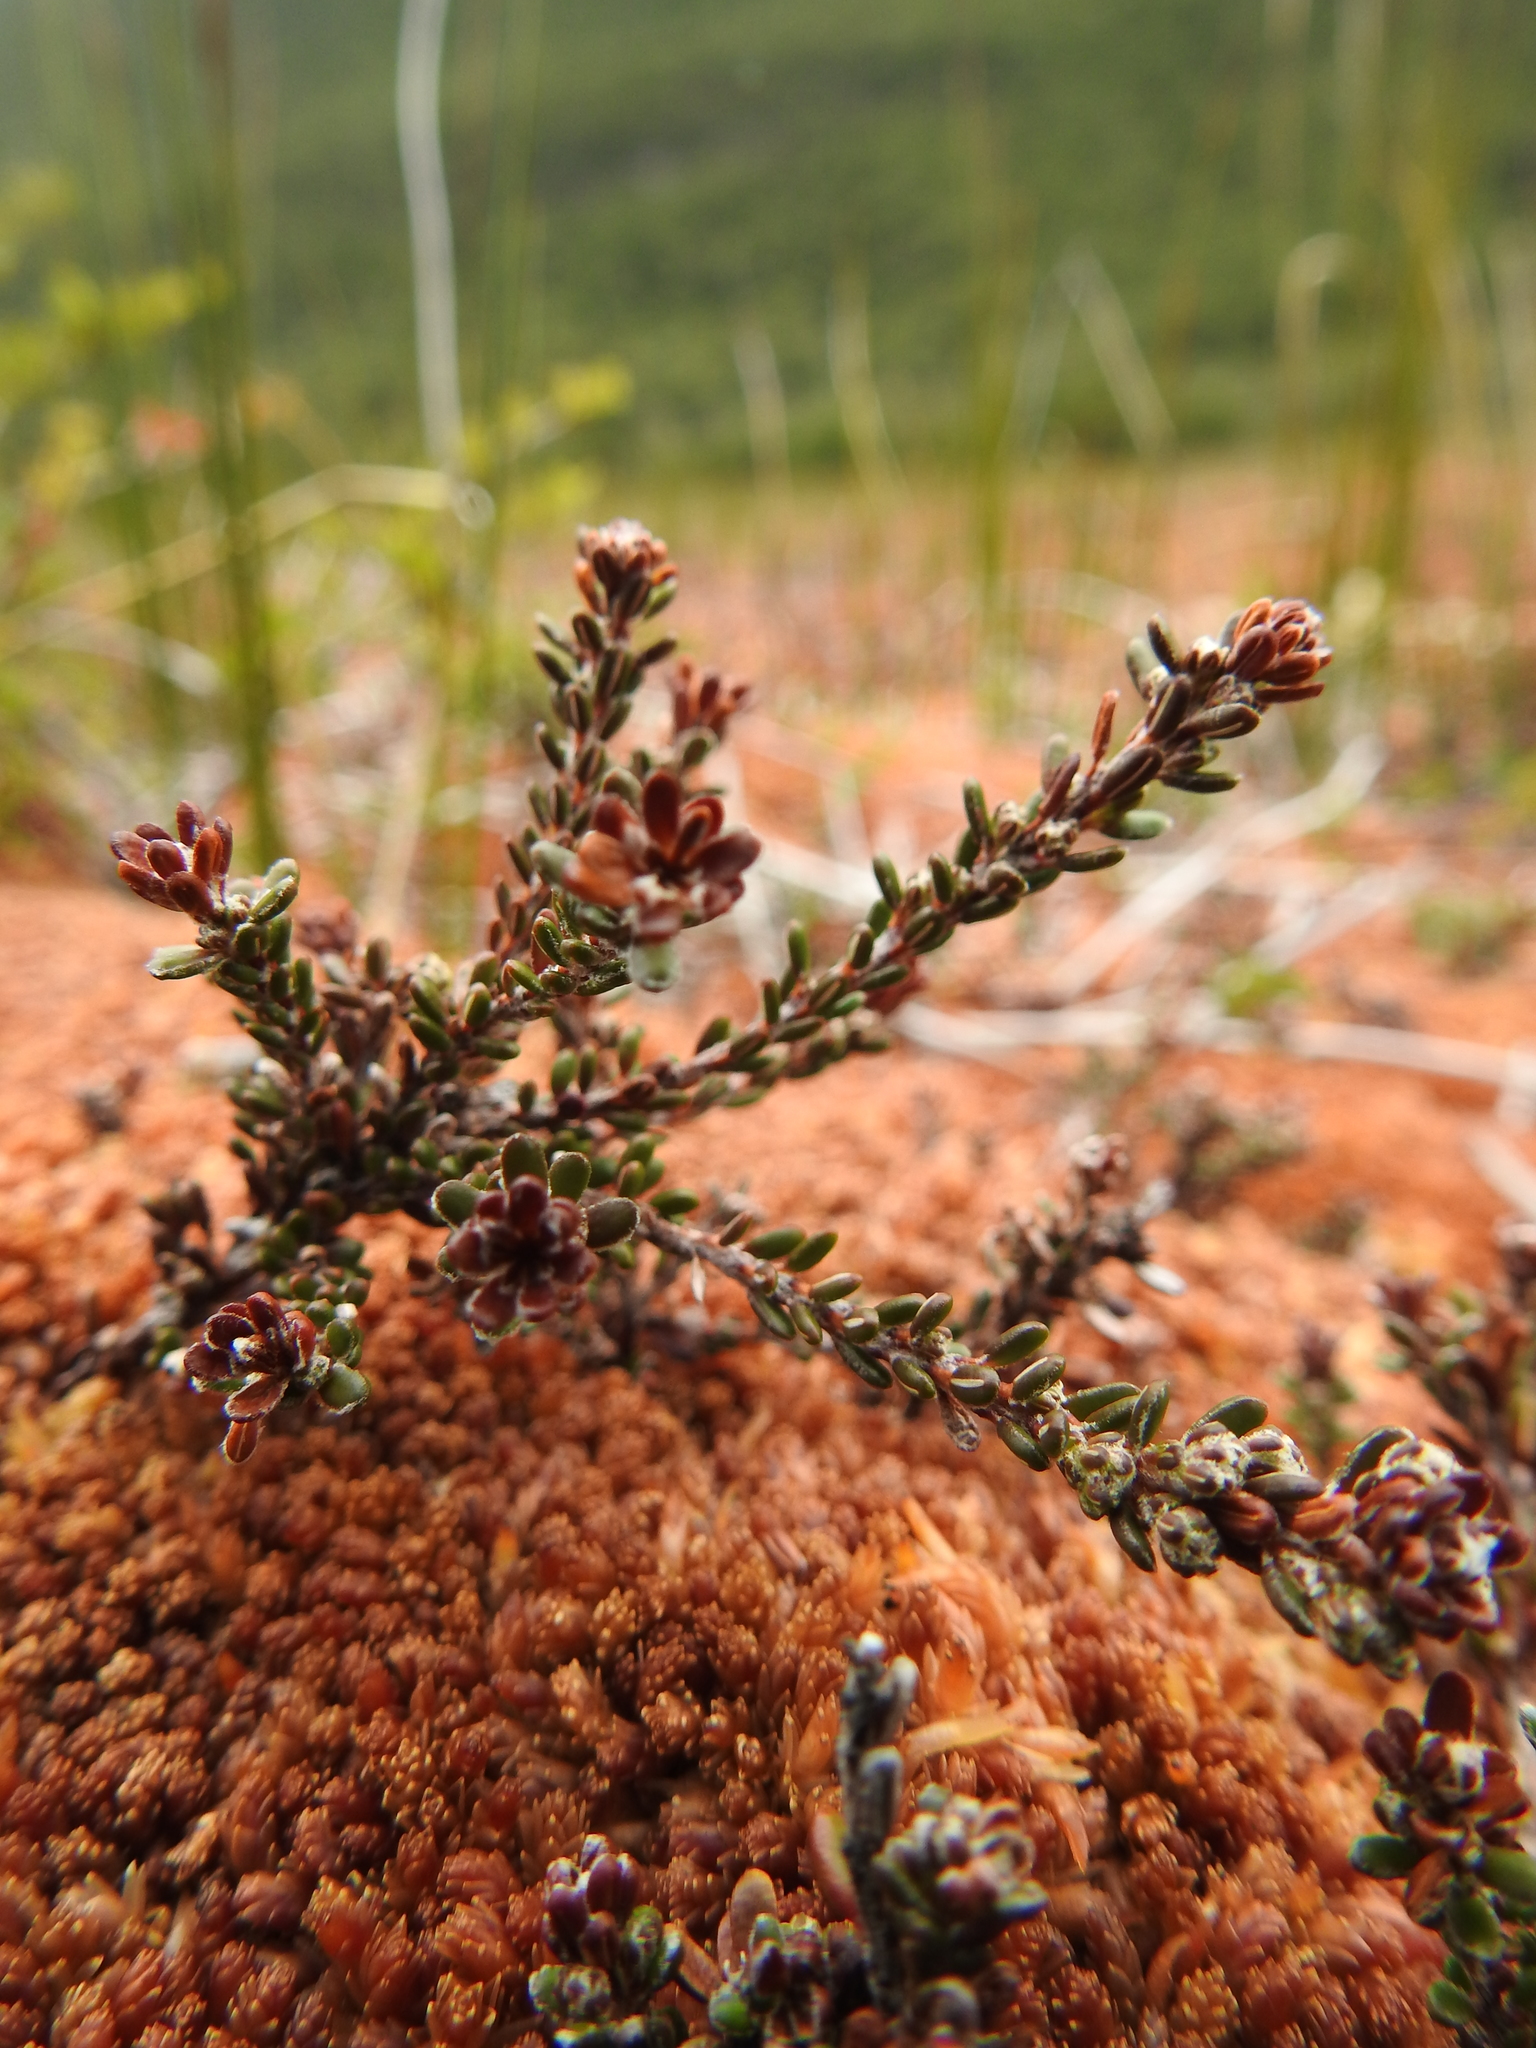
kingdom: Plantae
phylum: Tracheophyta
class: Magnoliopsida
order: Ericales
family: Ericaceae
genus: Empetrum
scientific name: Empetrum rubrum
